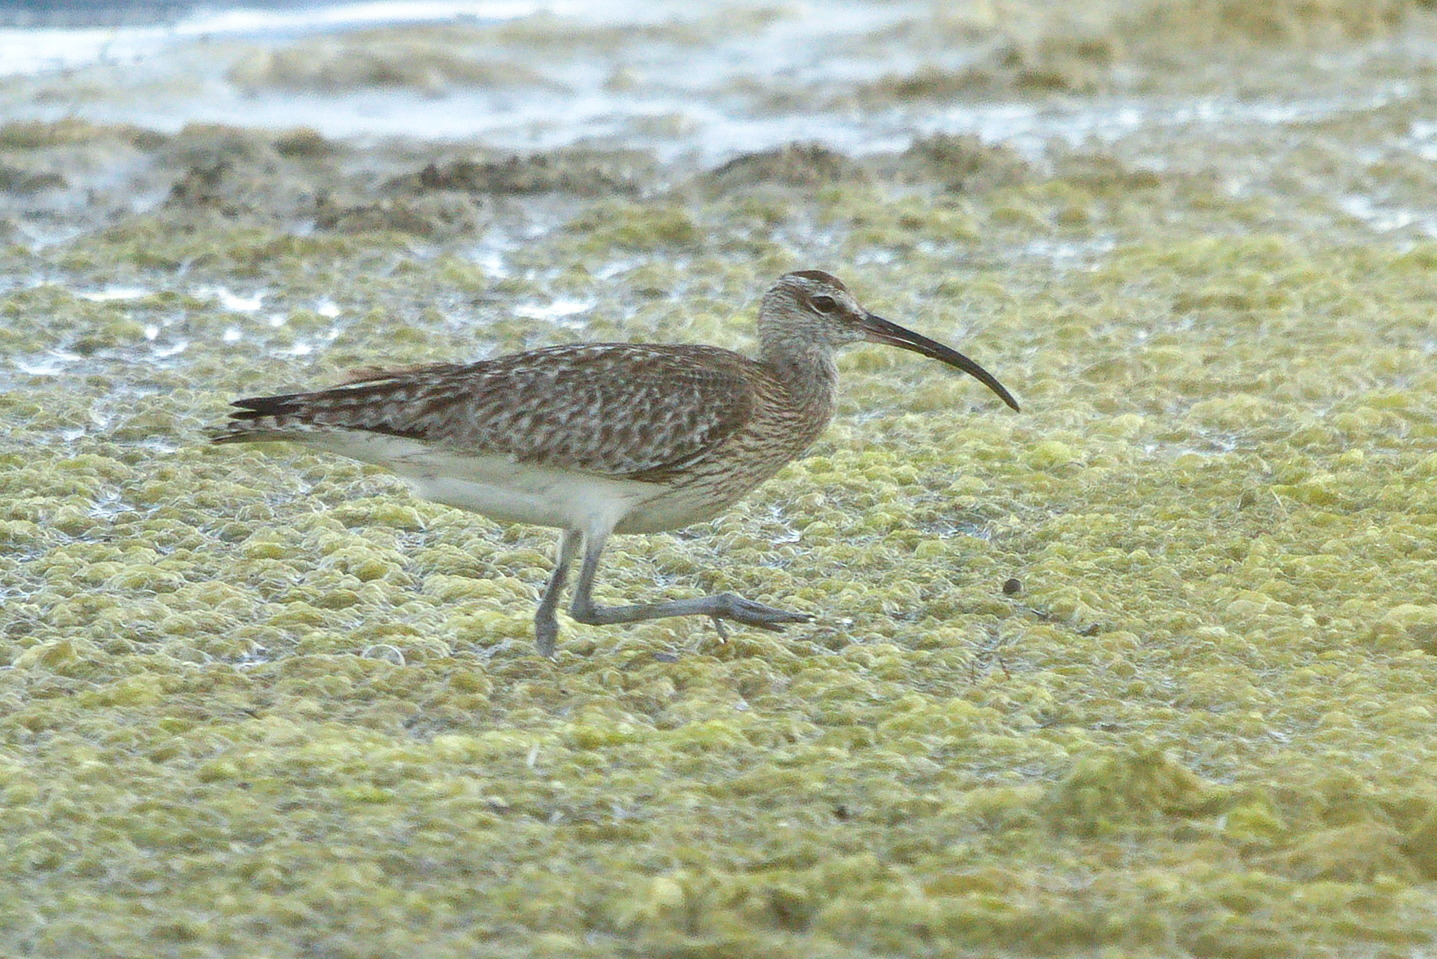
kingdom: Animalia
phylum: Chordata
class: Aves
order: Charadriiformes
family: Scolopacidae
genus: Numenius
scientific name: Numenius phaeopus
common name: Whimbrel
